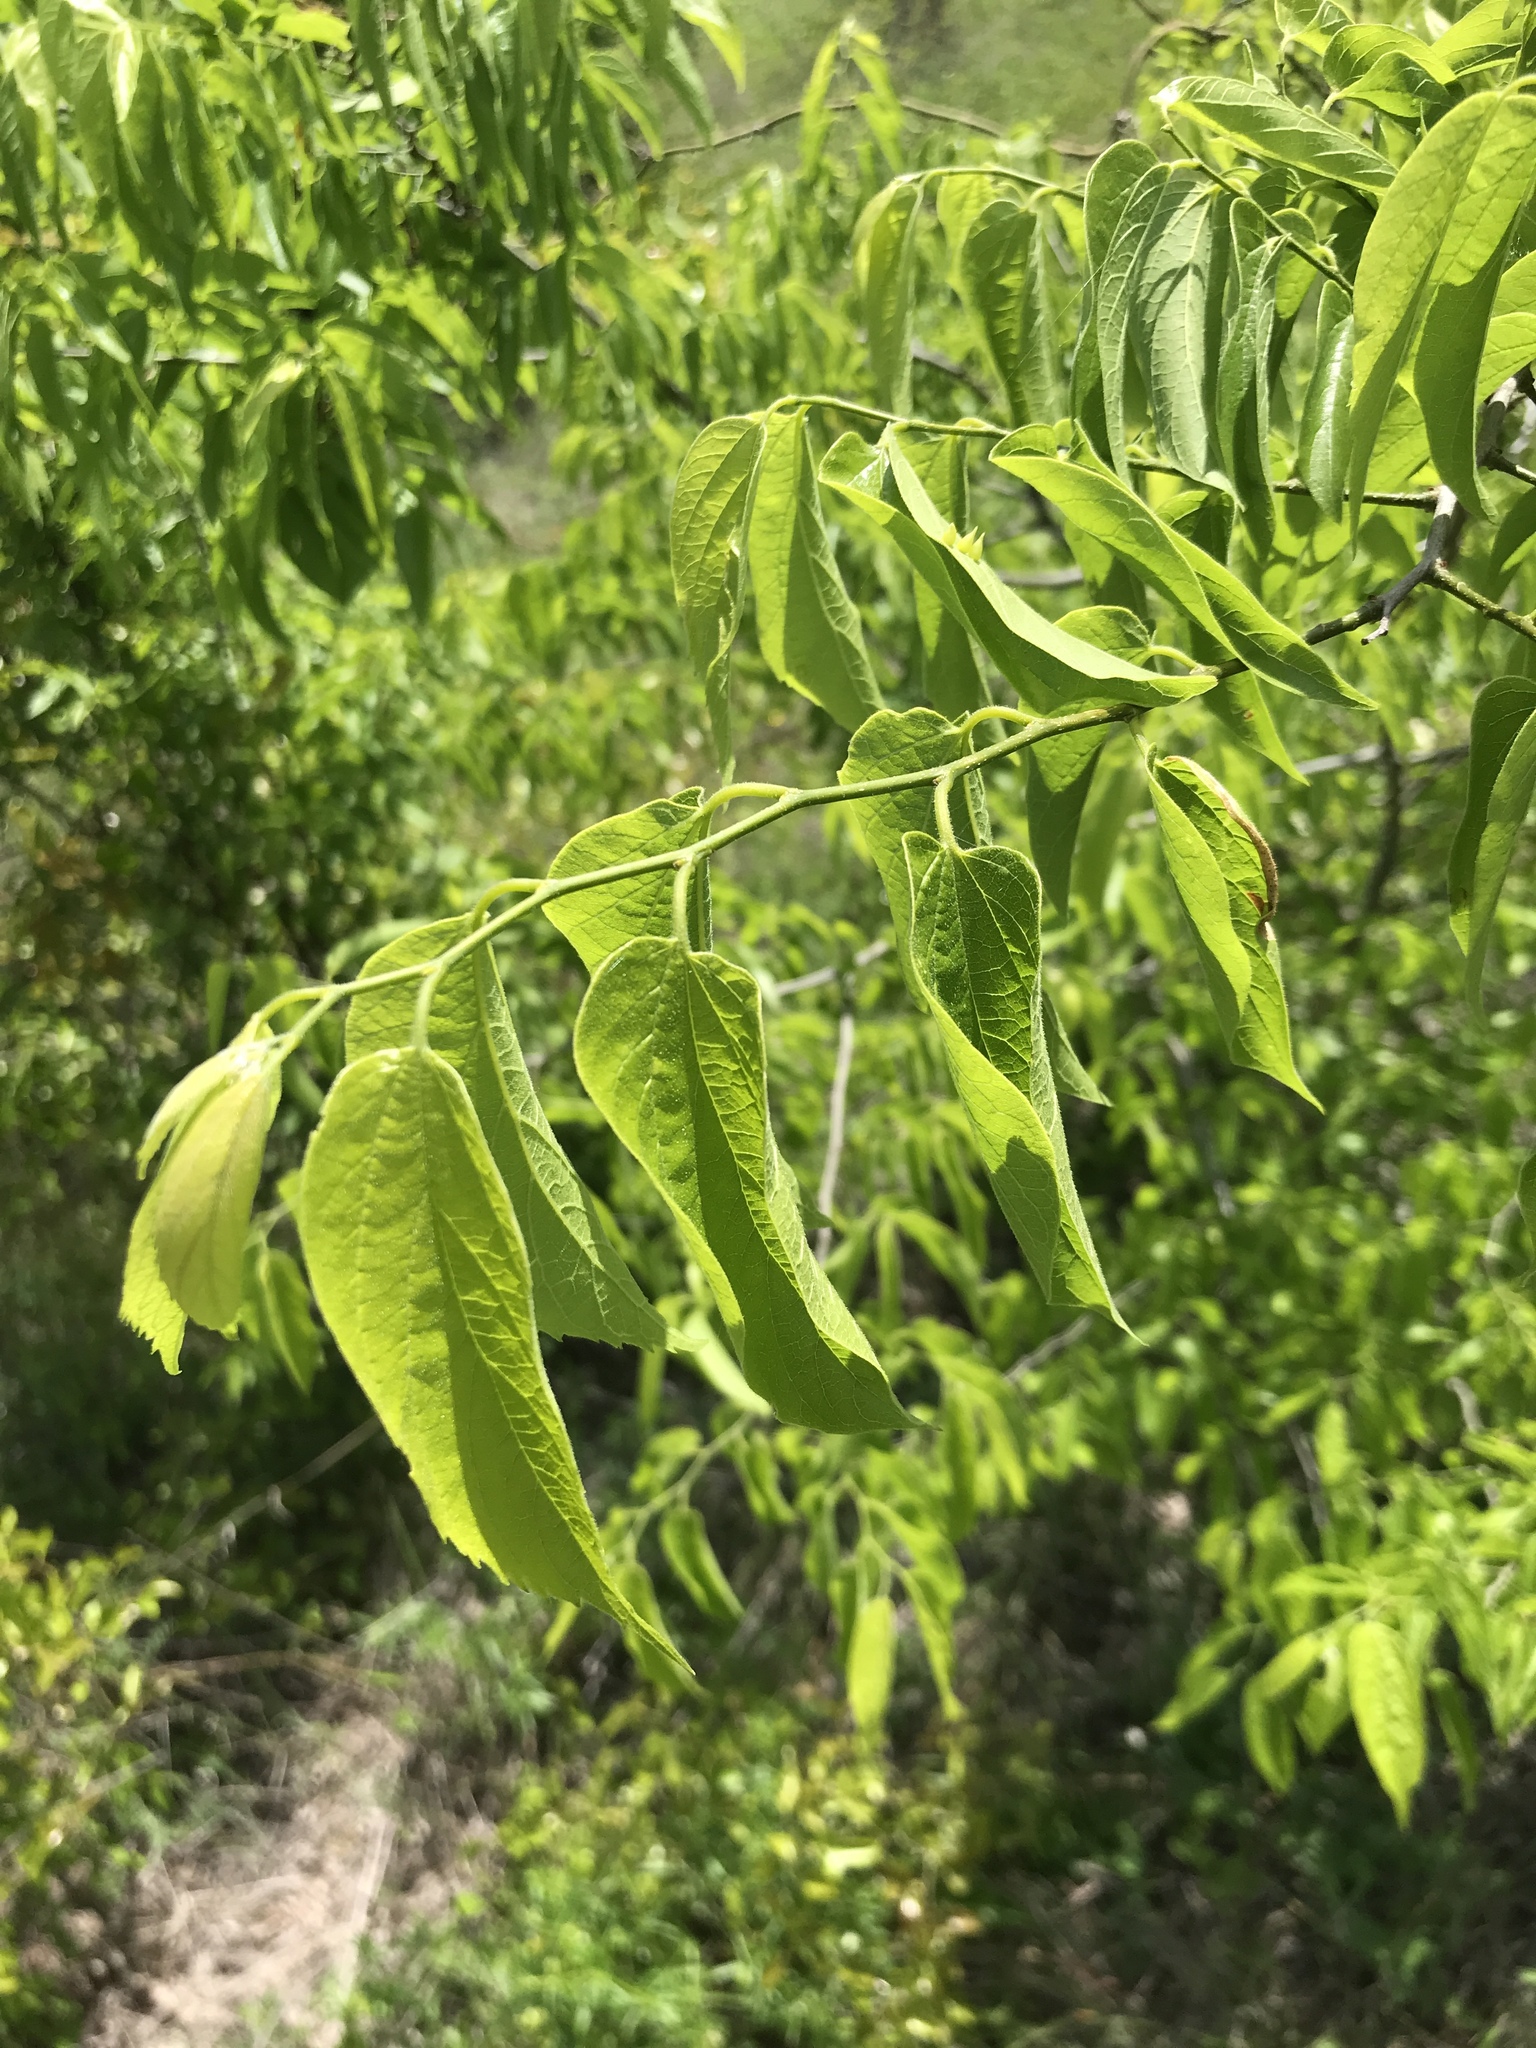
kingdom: Plantae
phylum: Tracheophyta
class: Magnoliopsida
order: Rosales
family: Cannabaceae
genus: Celtis
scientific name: Celtis laevigata
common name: Sugarberry
